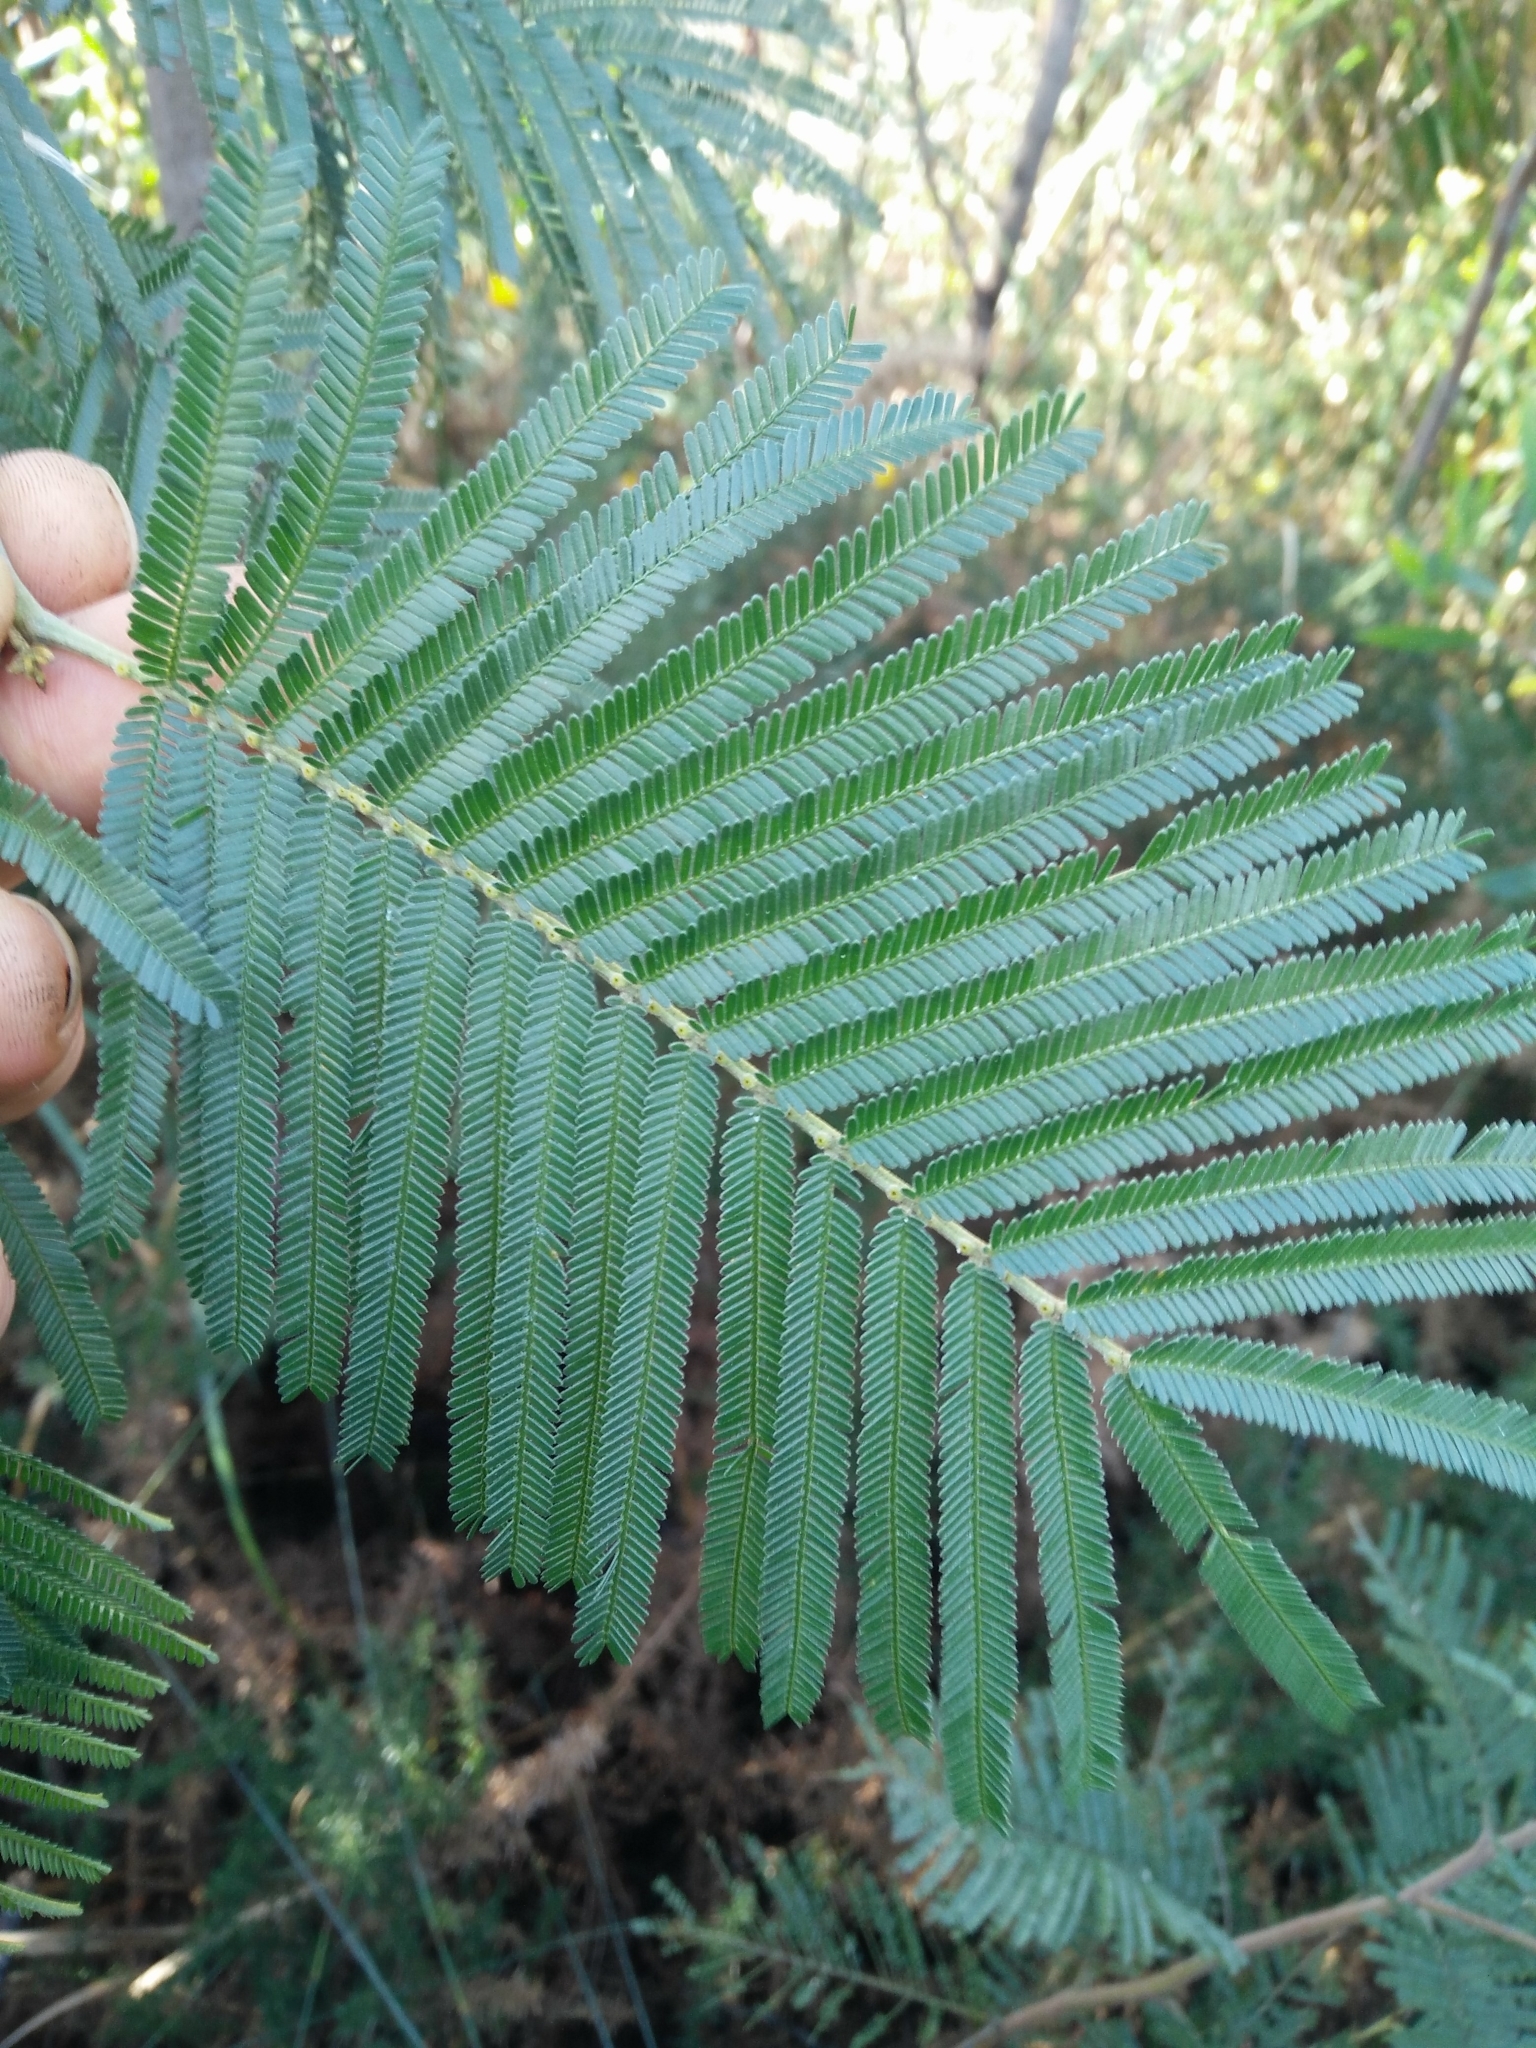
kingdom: Plantae
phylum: Tracheophyta
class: Magnoliopsida
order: Fabales
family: Fabaceae
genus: Acacia
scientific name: Acacia mearnsii
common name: Black wattle
